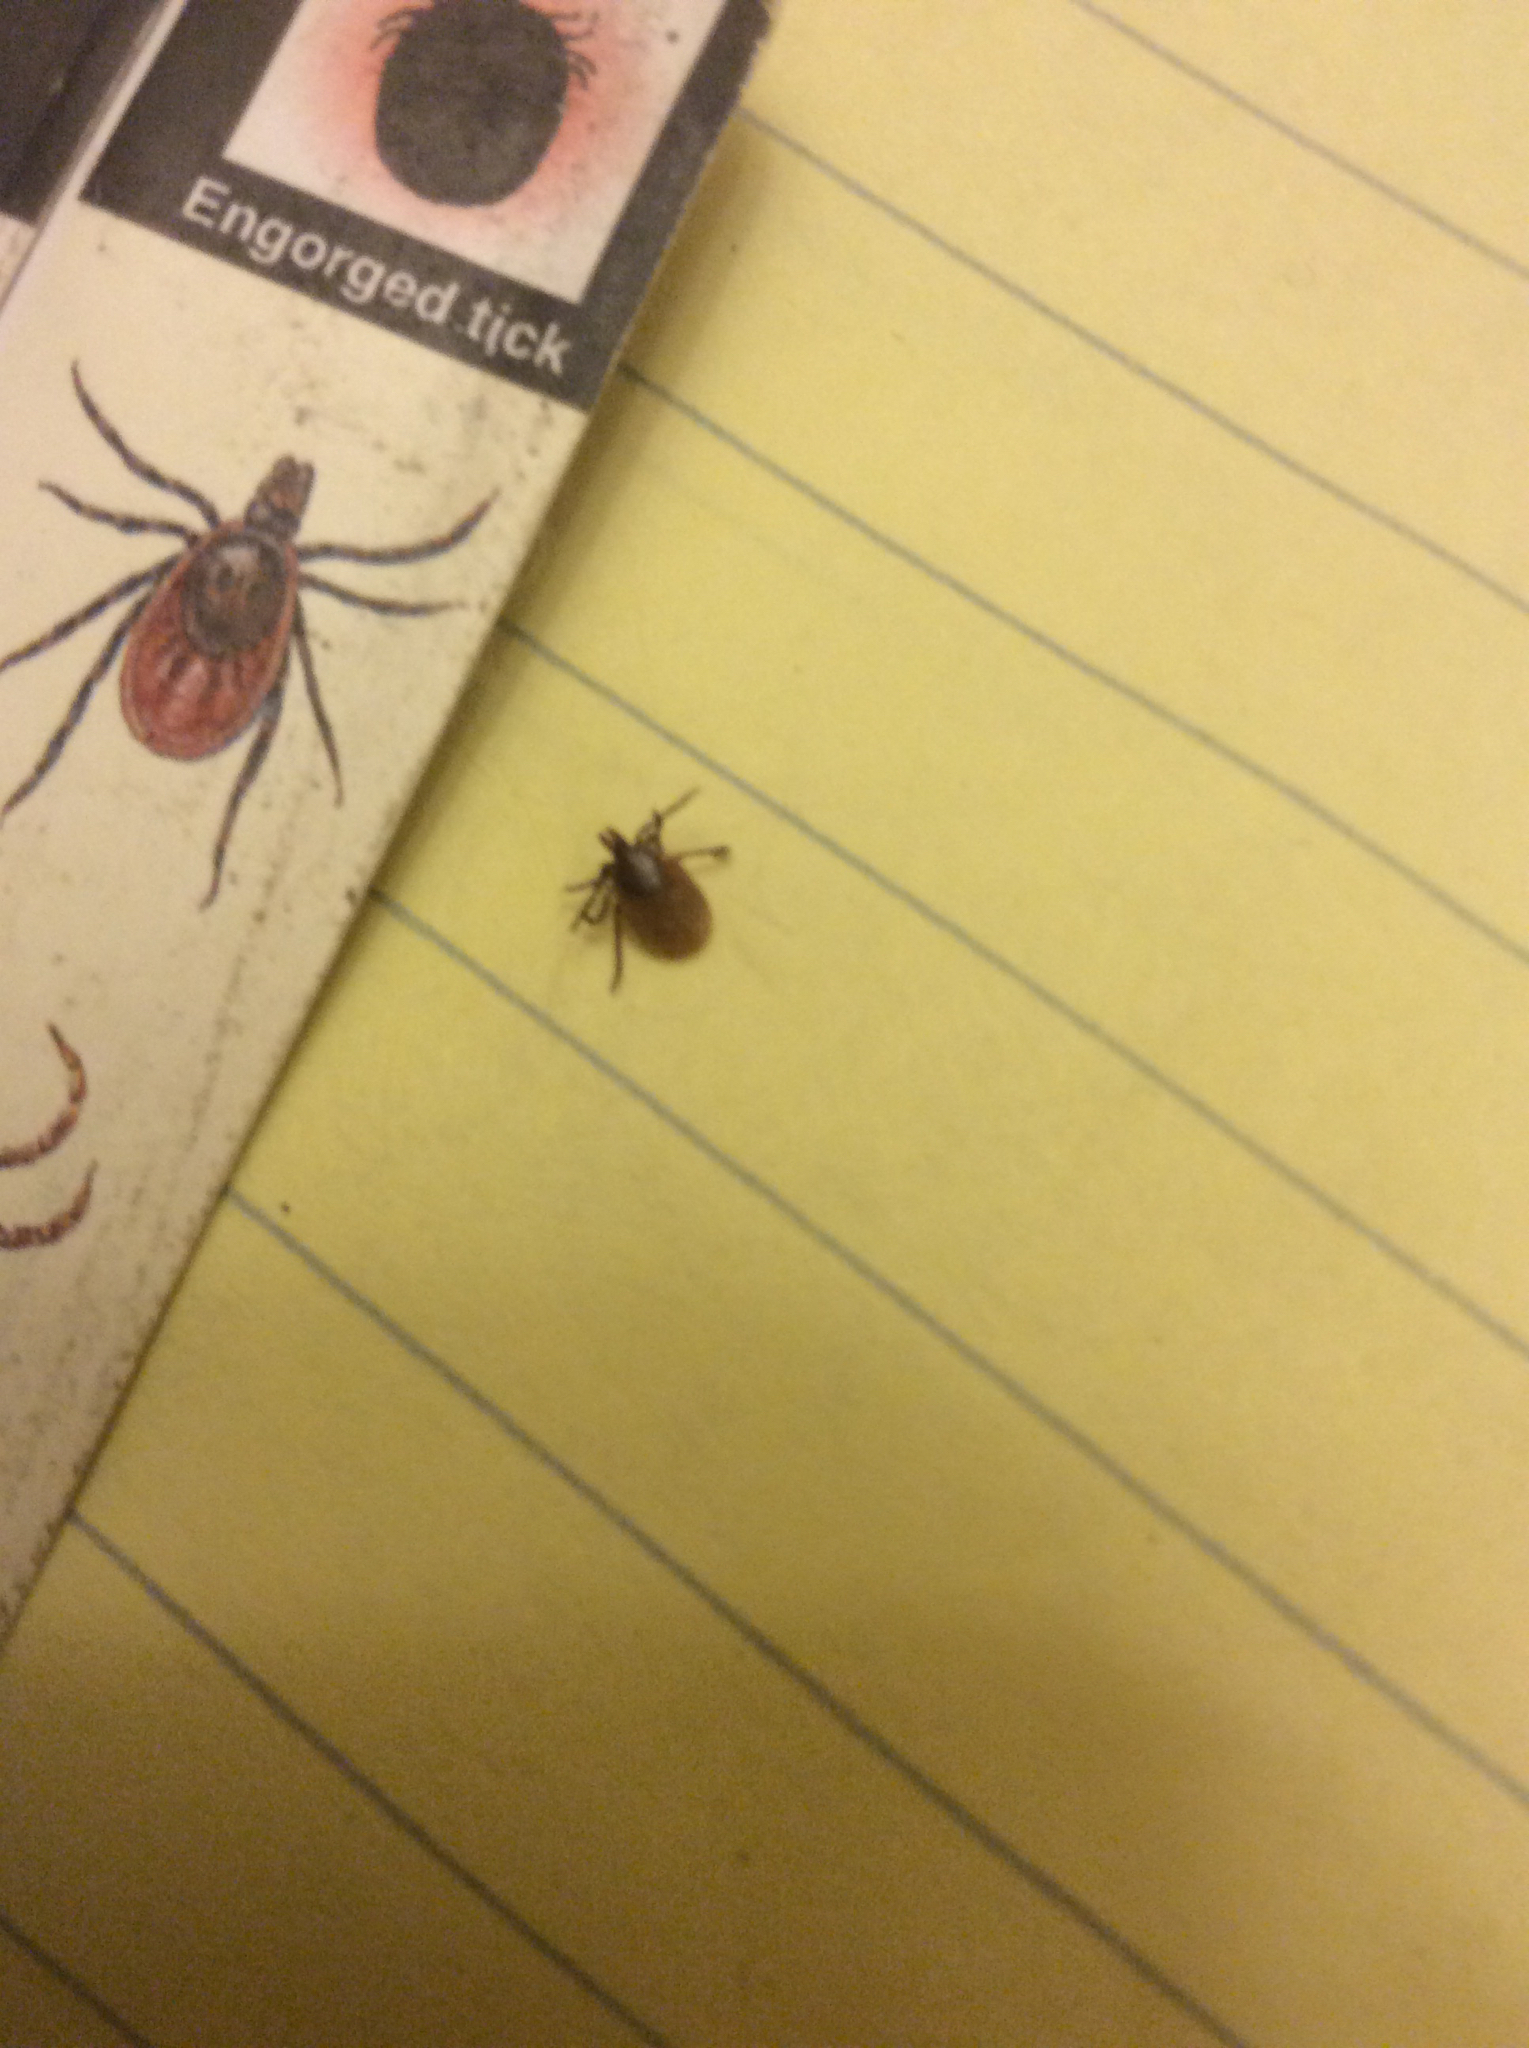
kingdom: Animalia
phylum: Arthropoda
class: Arachnida
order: Ixodida
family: Ixodidae
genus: Ixodes
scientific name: Ixodes scapularis
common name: Black legged tick
